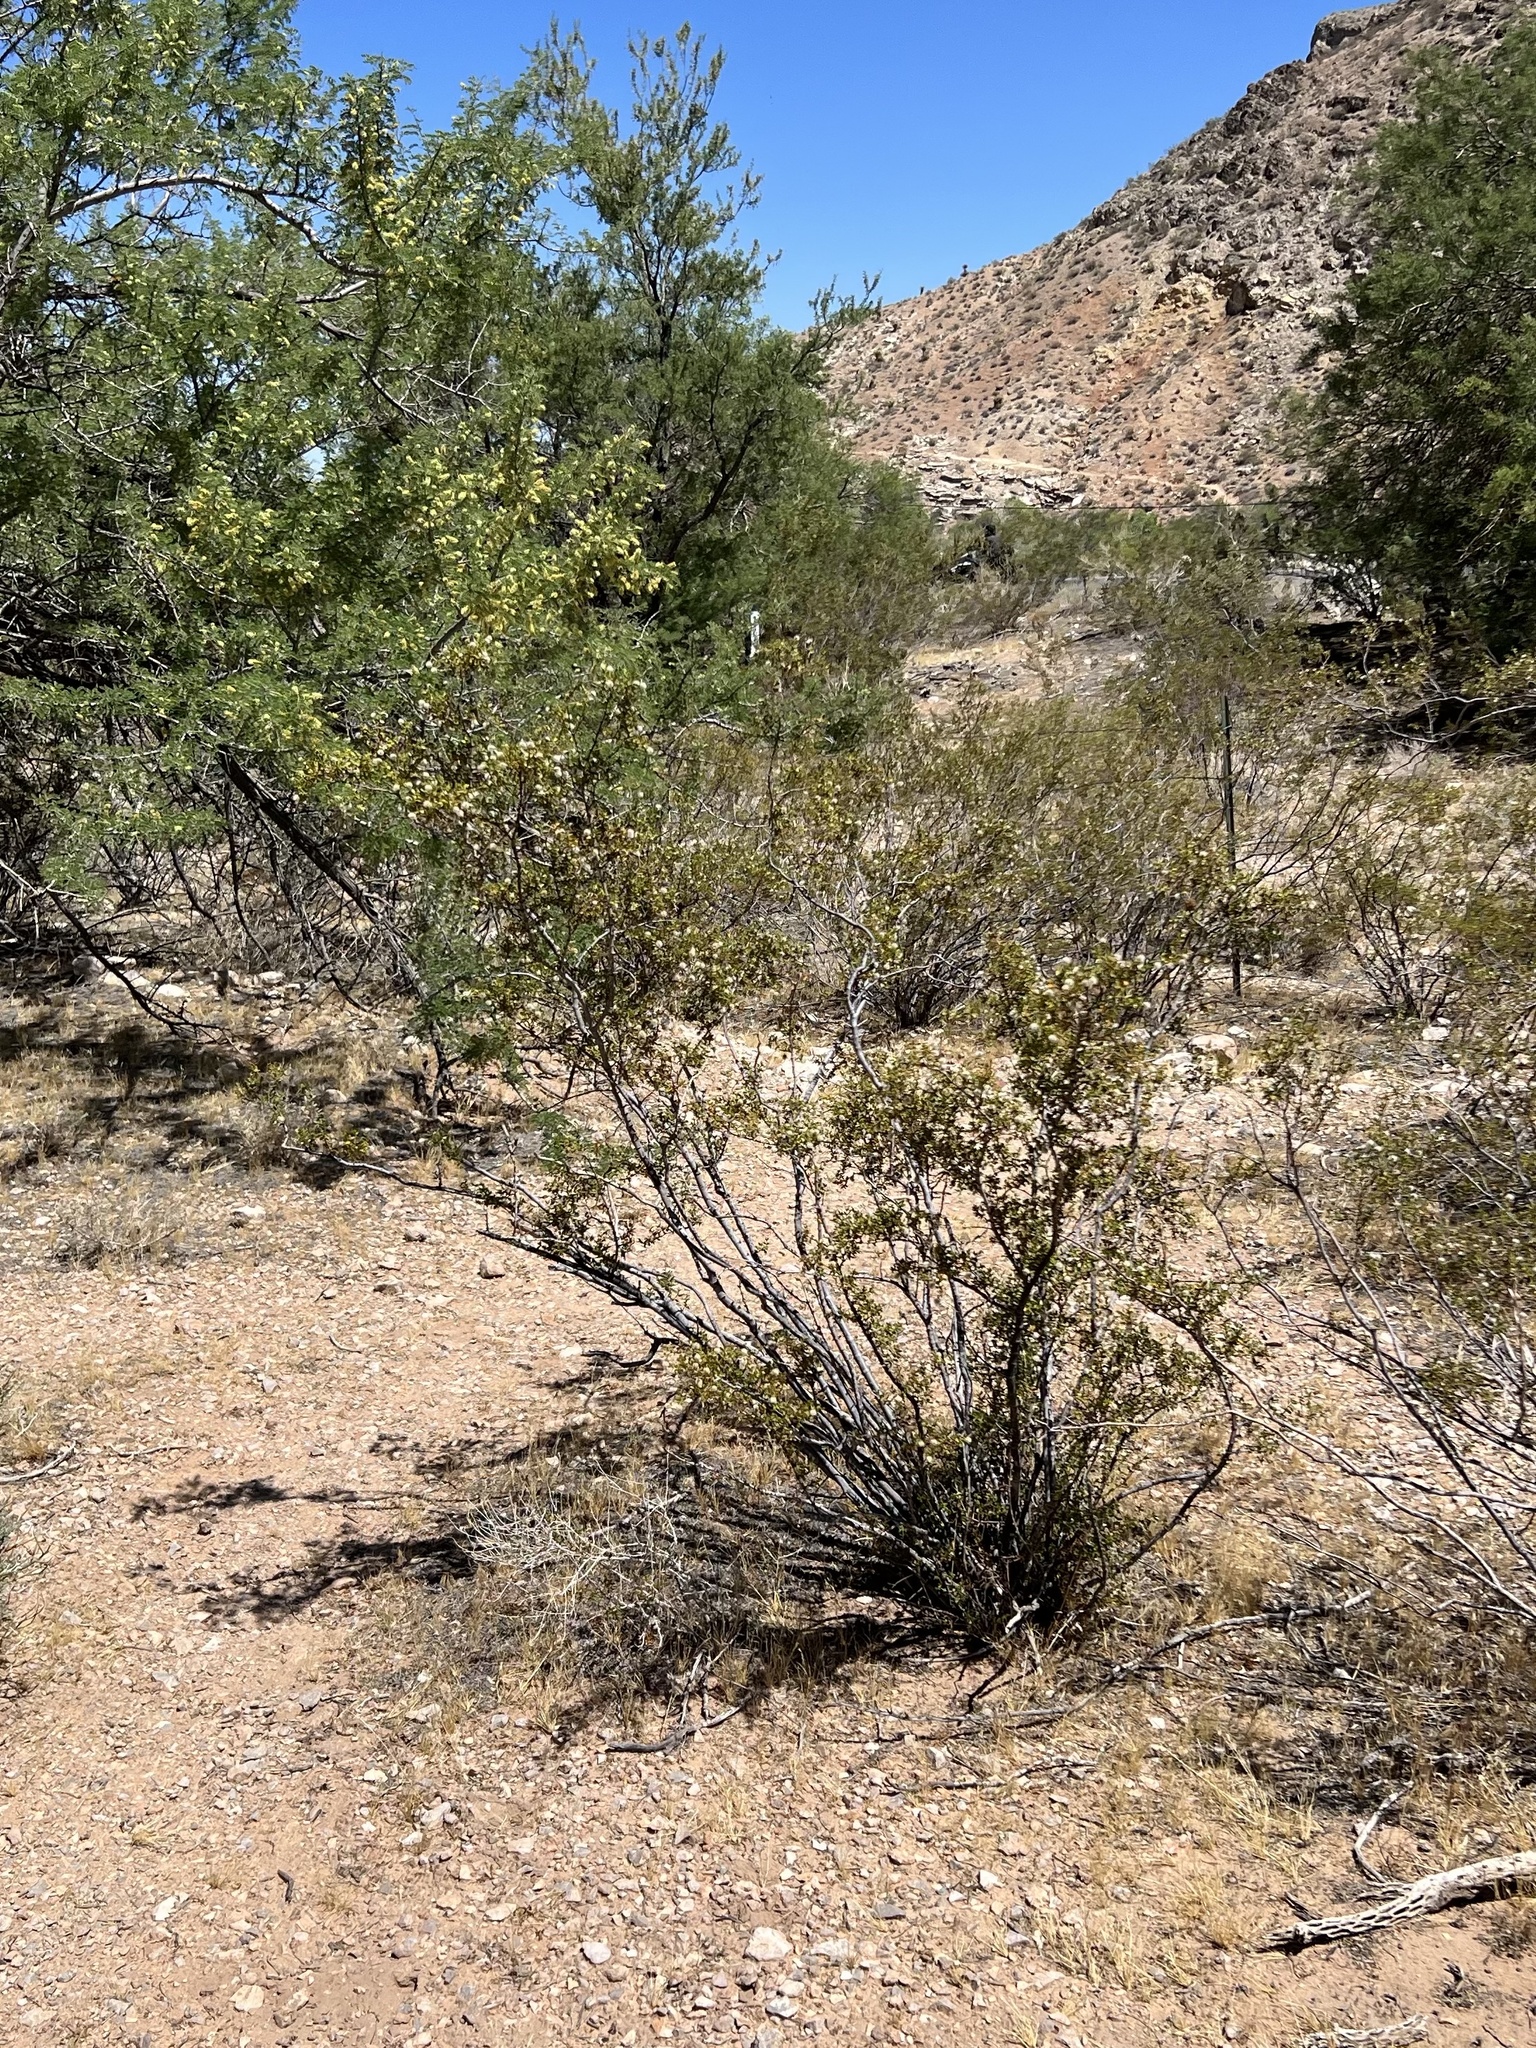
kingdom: Plantae
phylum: Tracheophyta
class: Magnoliopsida
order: Zygophyllales
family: Zygophyllaceae
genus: Larrea
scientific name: Larrea tridentata
